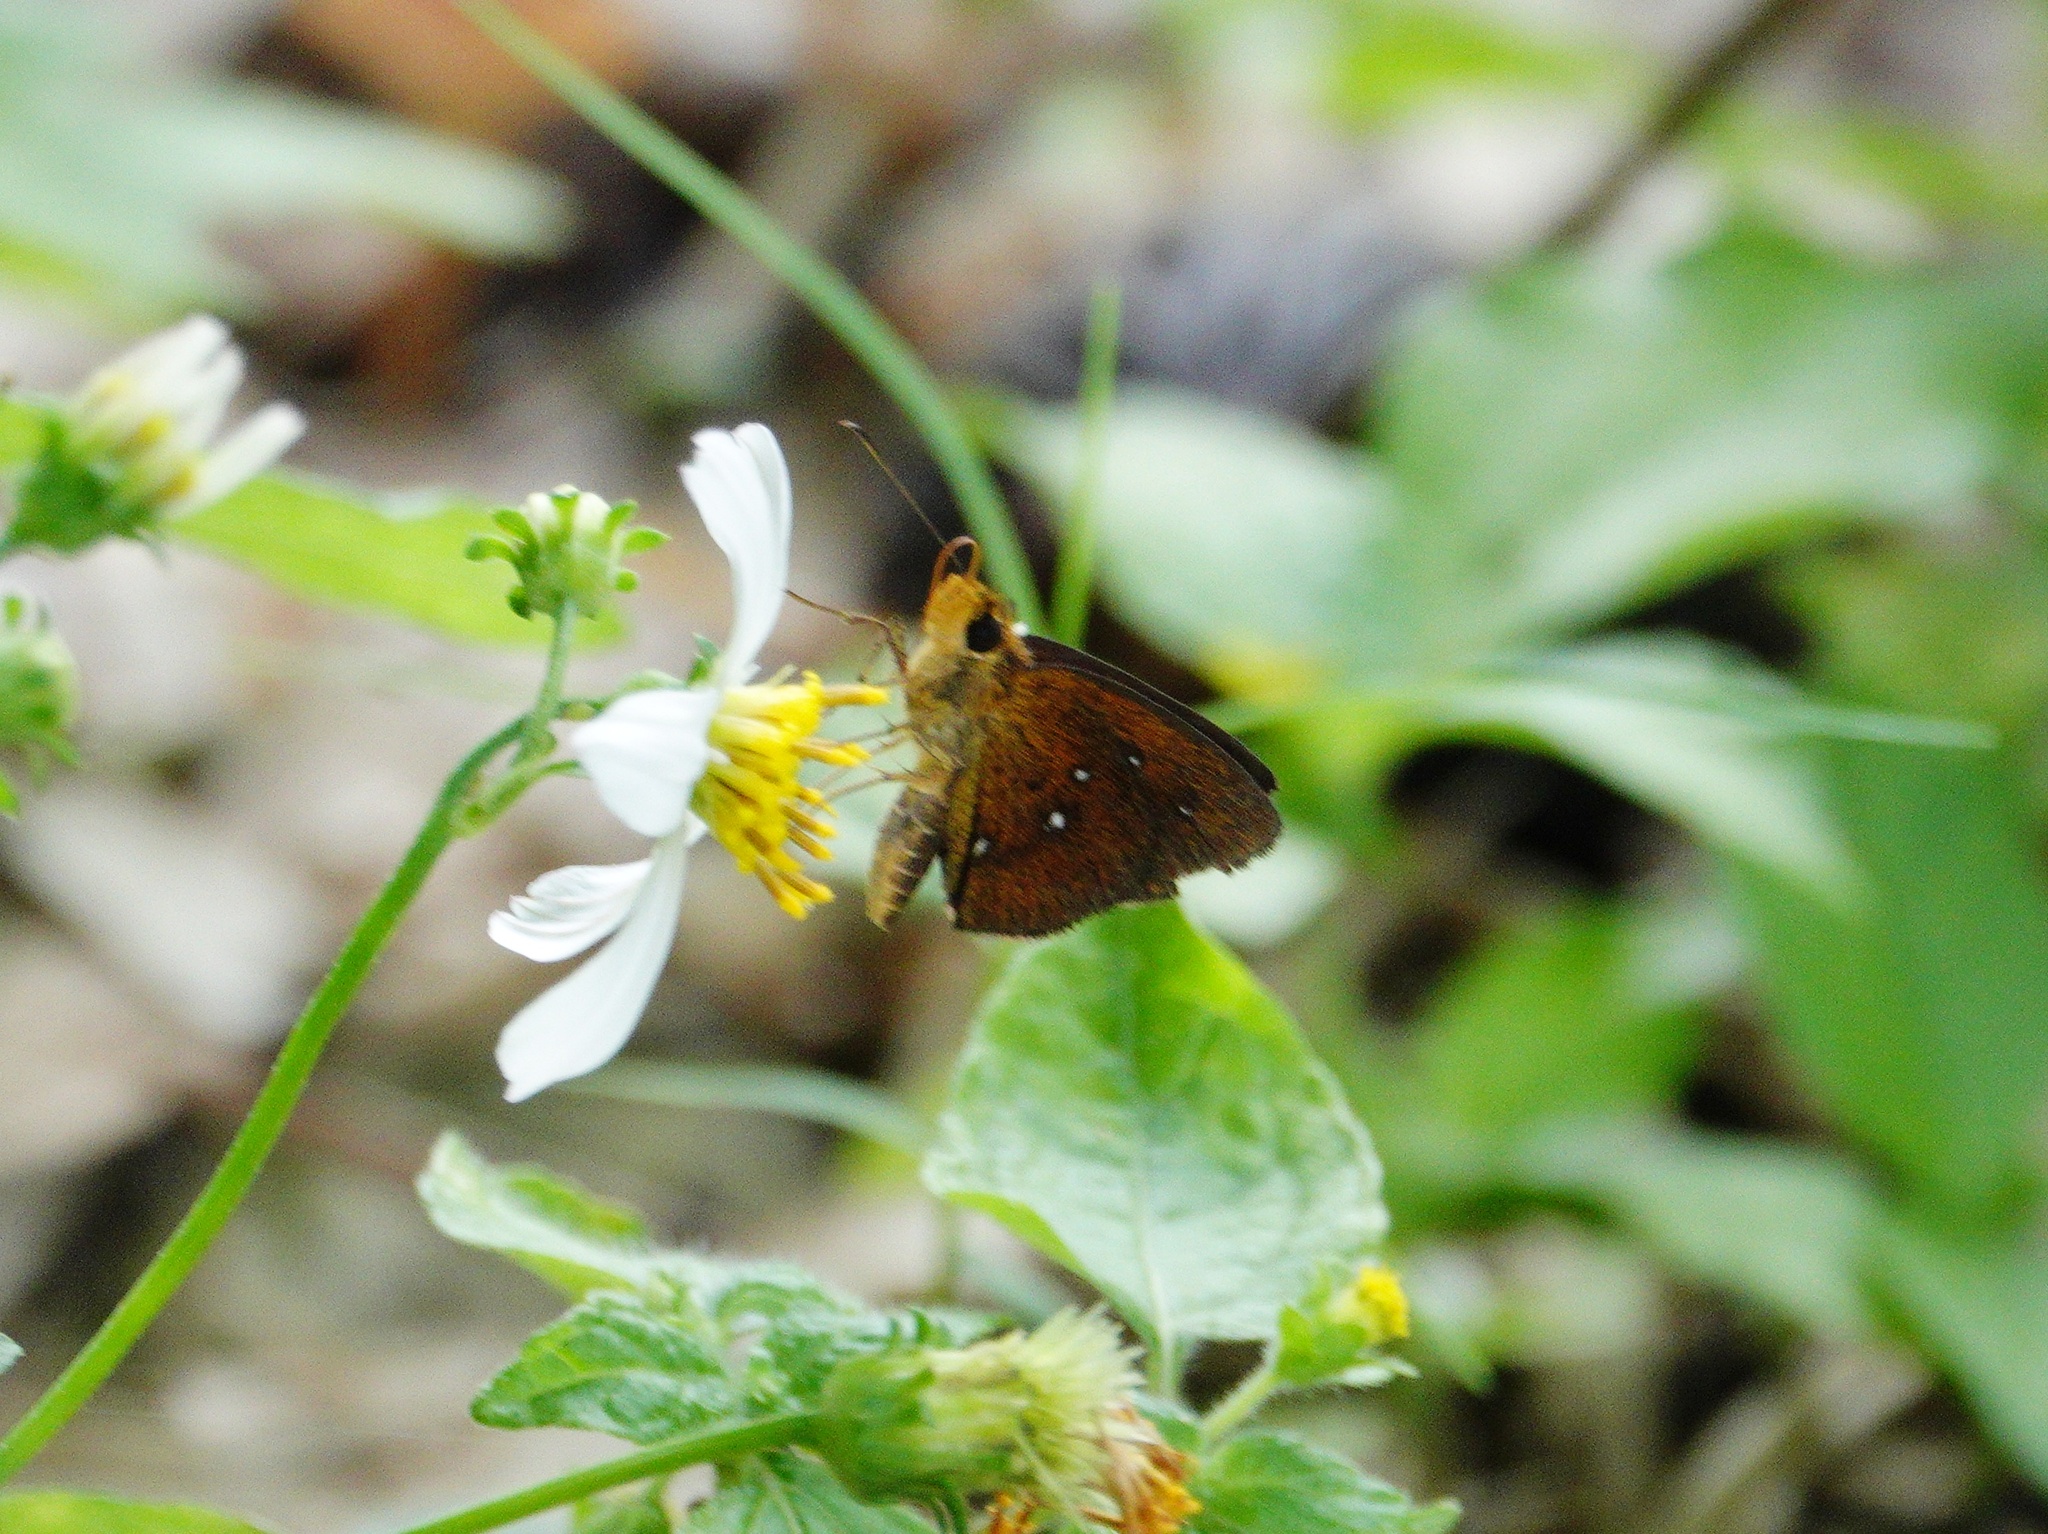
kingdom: Animalia
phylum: Arthropoda
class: Insecta
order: Lepidoptera
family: Hesperiidae
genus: Iambrix
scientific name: Iambrix salsala
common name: Chestnut bob
